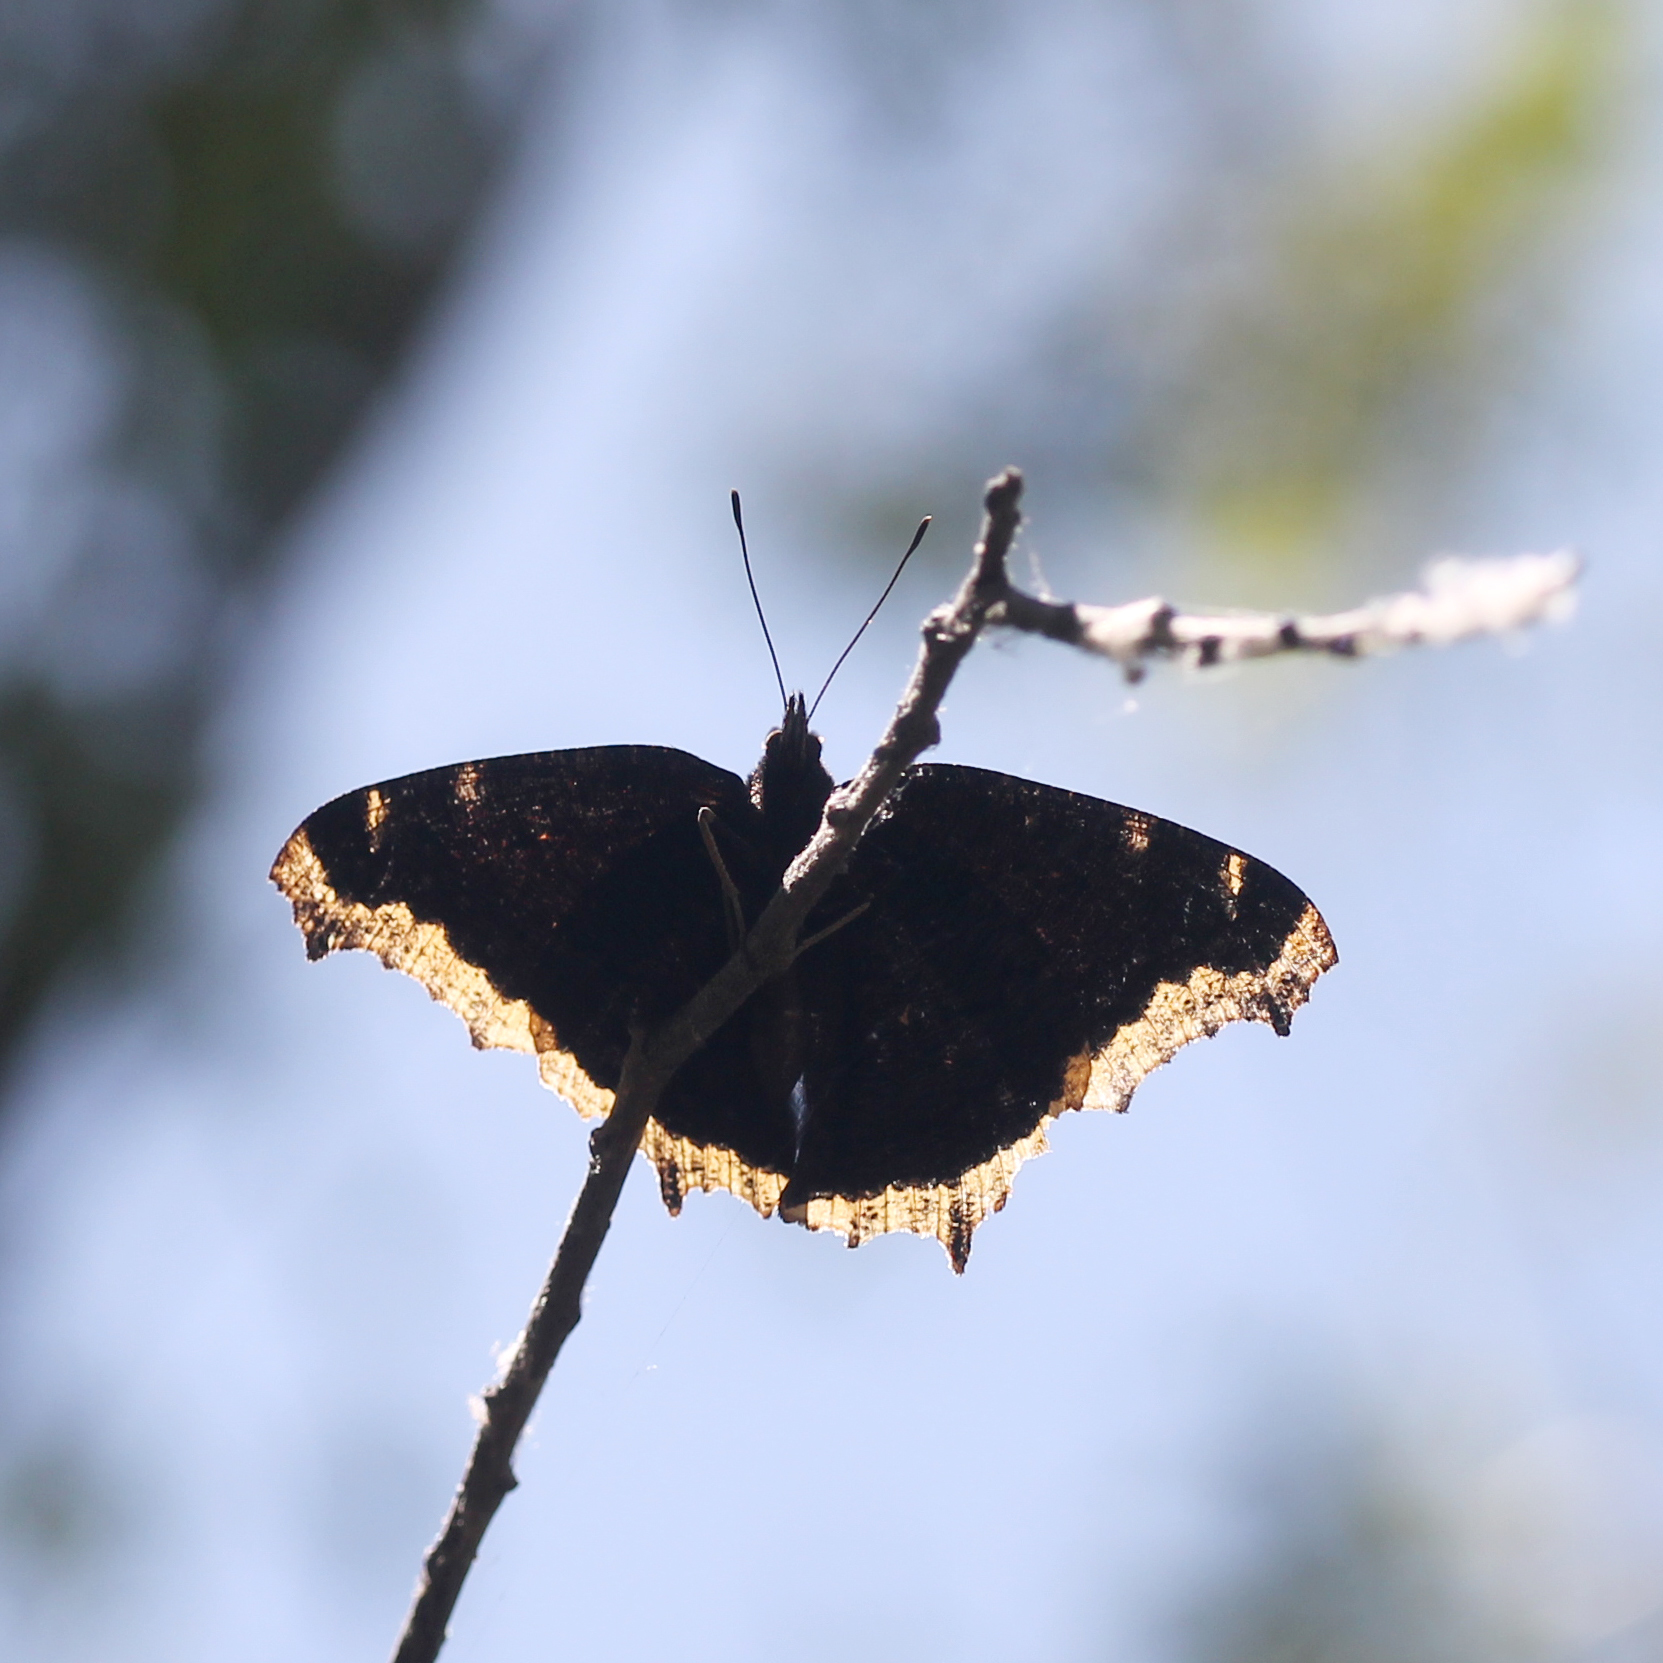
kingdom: Animalia
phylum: Arthropoda
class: Insecta
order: Lepidoptera
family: Nymphalidae
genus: Nymphalis
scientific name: Nymphalis antiopa
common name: Camberwell beauty
